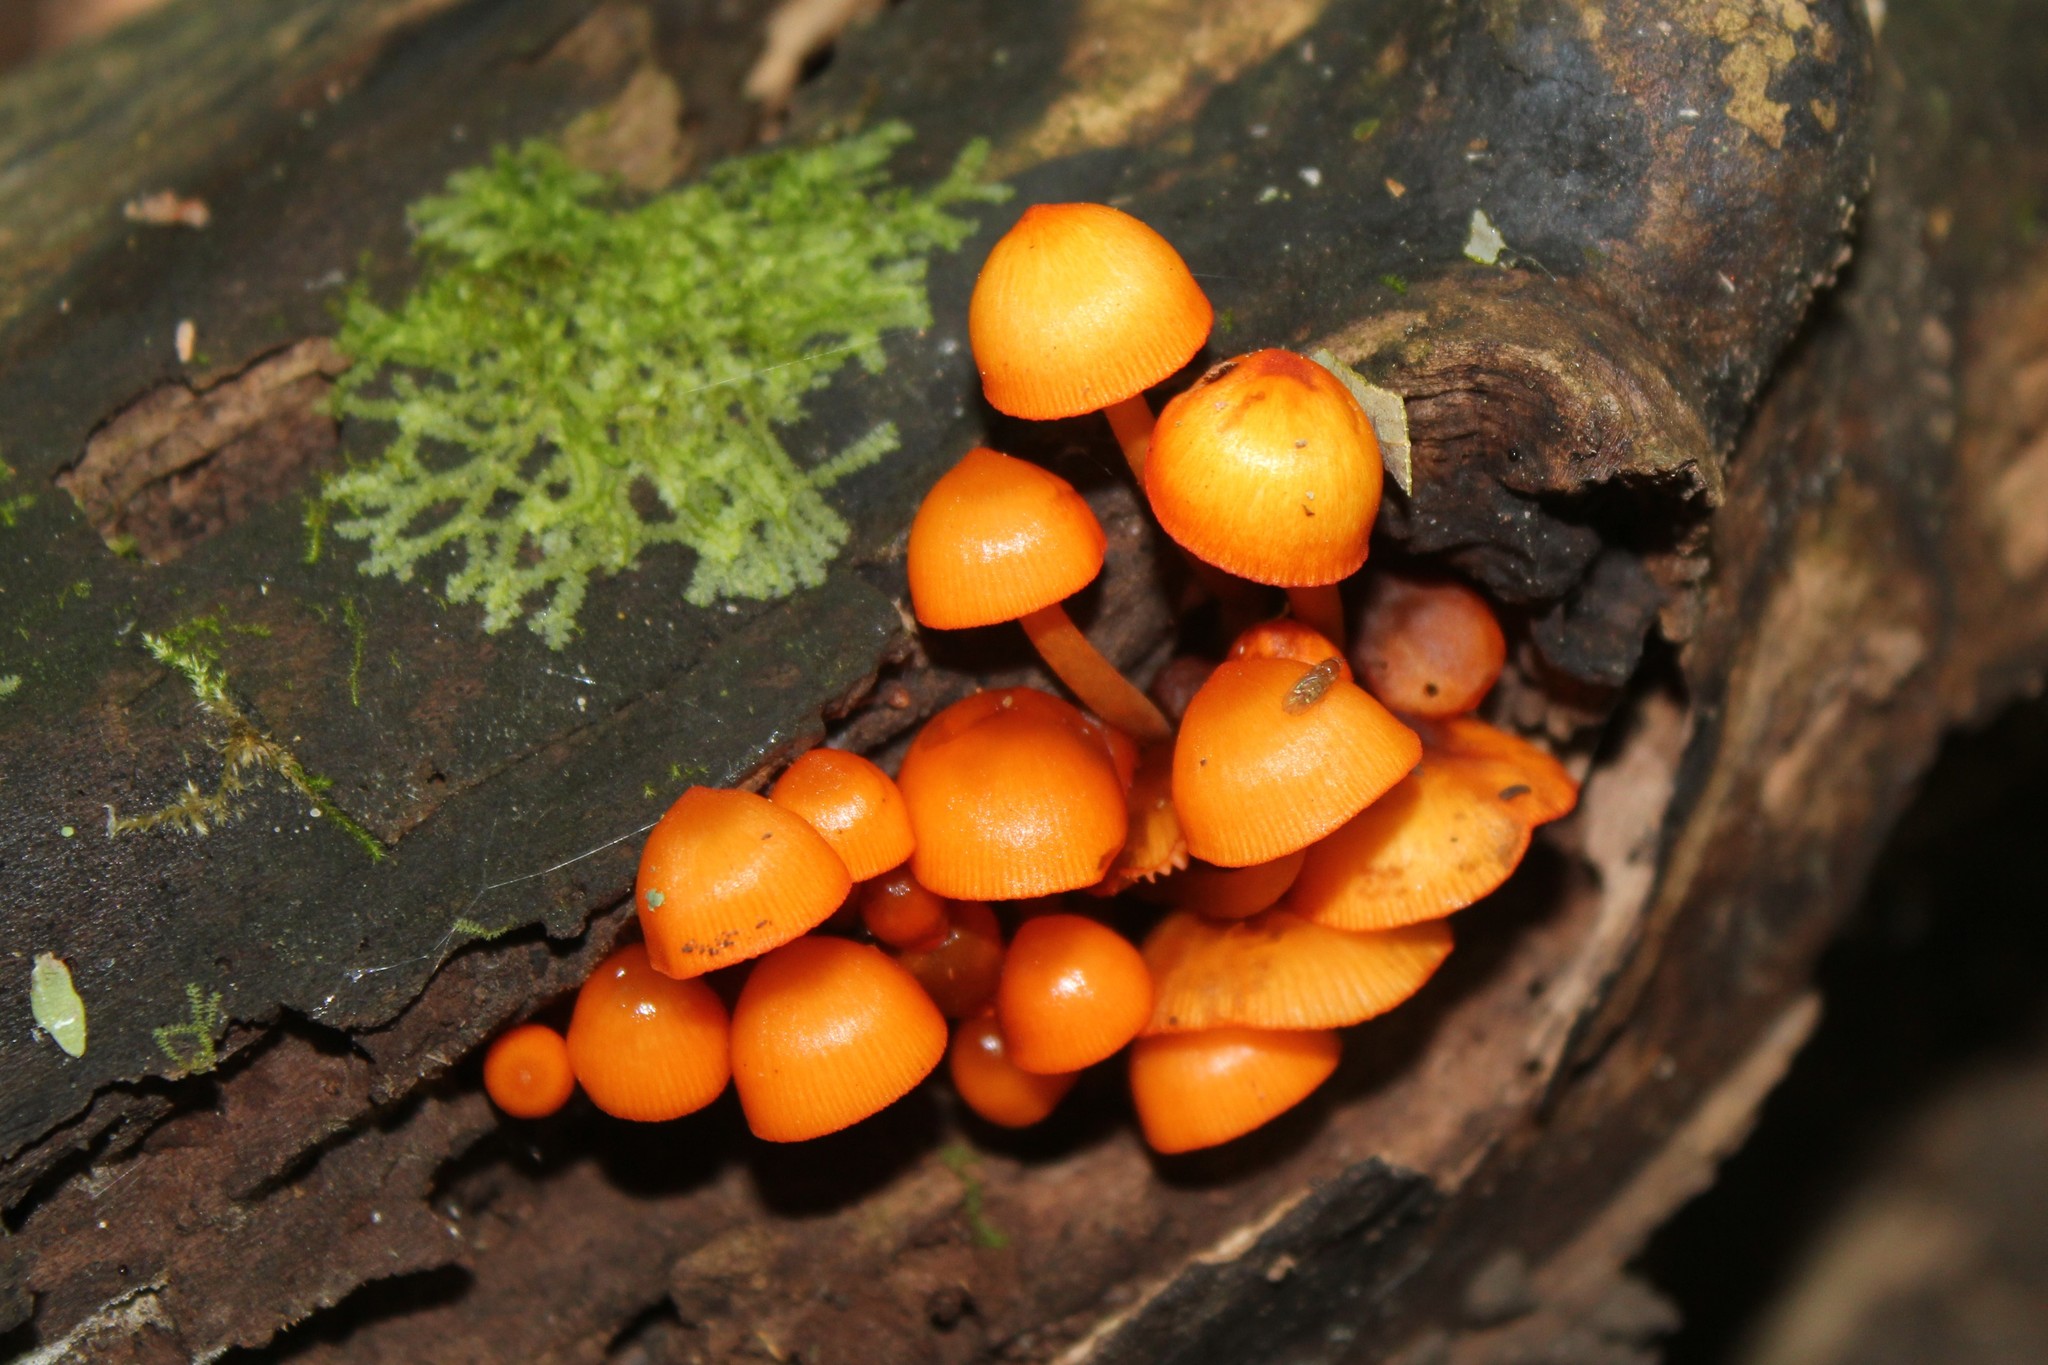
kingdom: Fungi
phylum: Basidiomycota
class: Agaricomycetes
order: Agaricales
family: Mycenaceae
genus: Mycena
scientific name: Mycena leaiana
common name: Orange mycena
